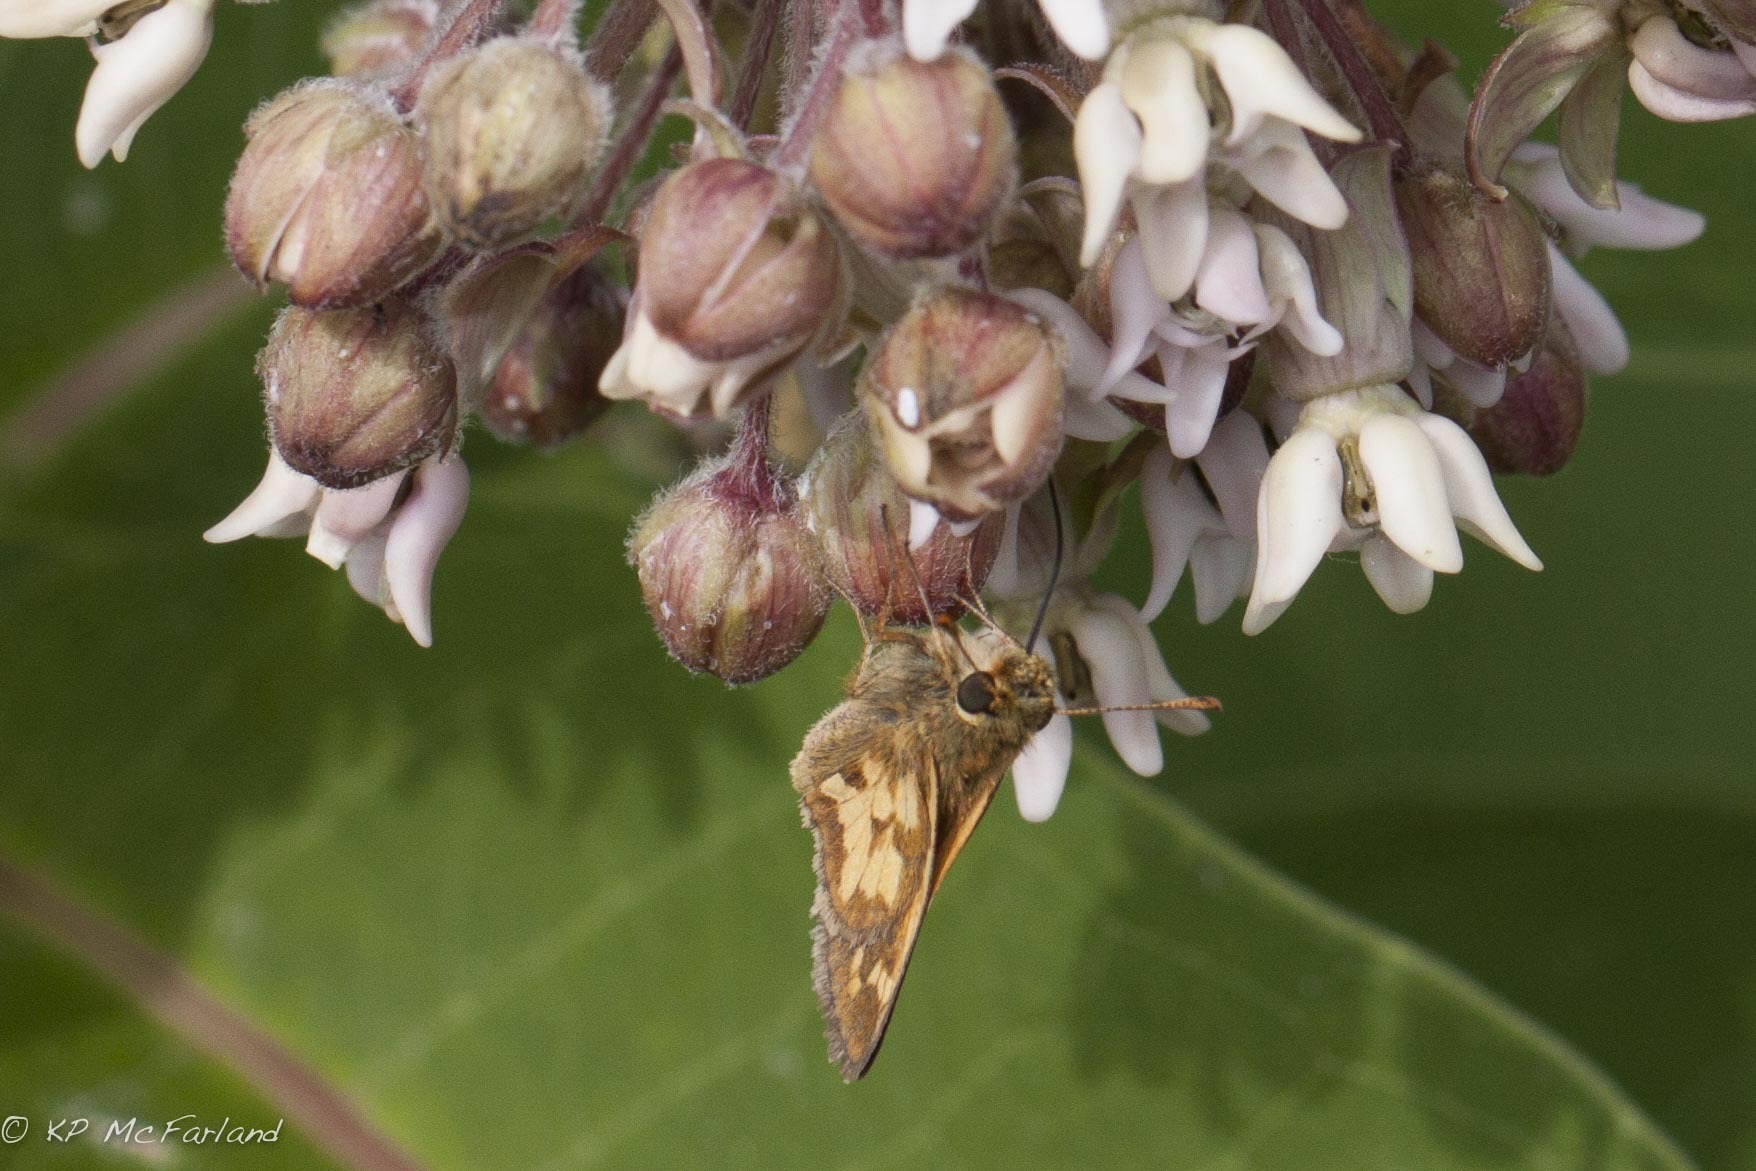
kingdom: Animalia
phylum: Arthropoda
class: Insecta
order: Lepidoptera
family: Hesperiidae
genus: Polites
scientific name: Polites coras
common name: Peck's skipper
